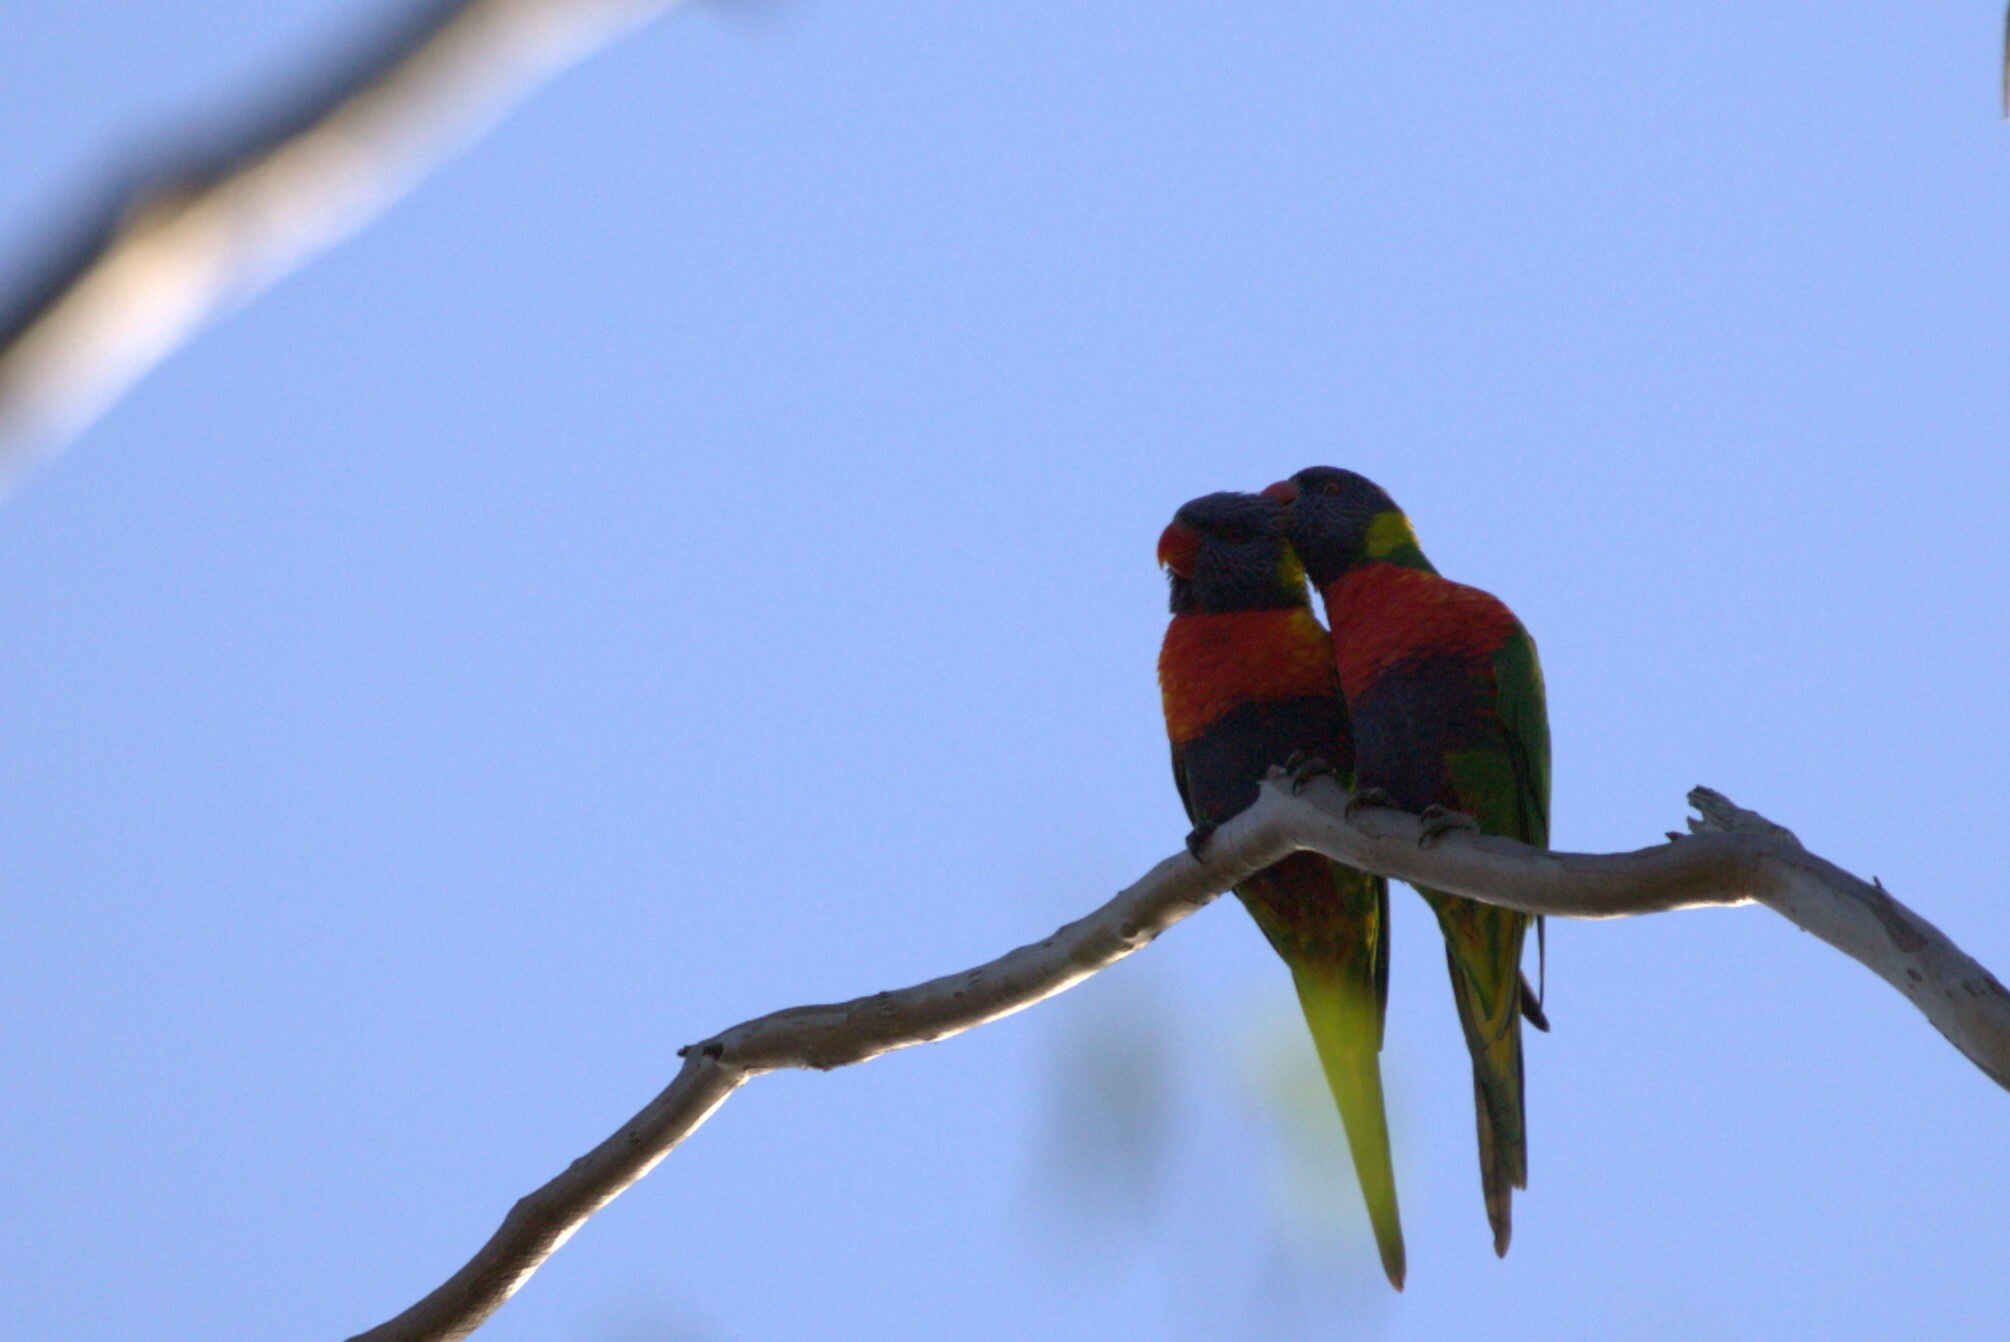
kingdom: Animalia
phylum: Chordata
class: Aves
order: Psittaciformes
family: Psittacidae
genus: Trichoglossus
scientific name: Trichoglossus haematodus
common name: Coconut lorikeet
